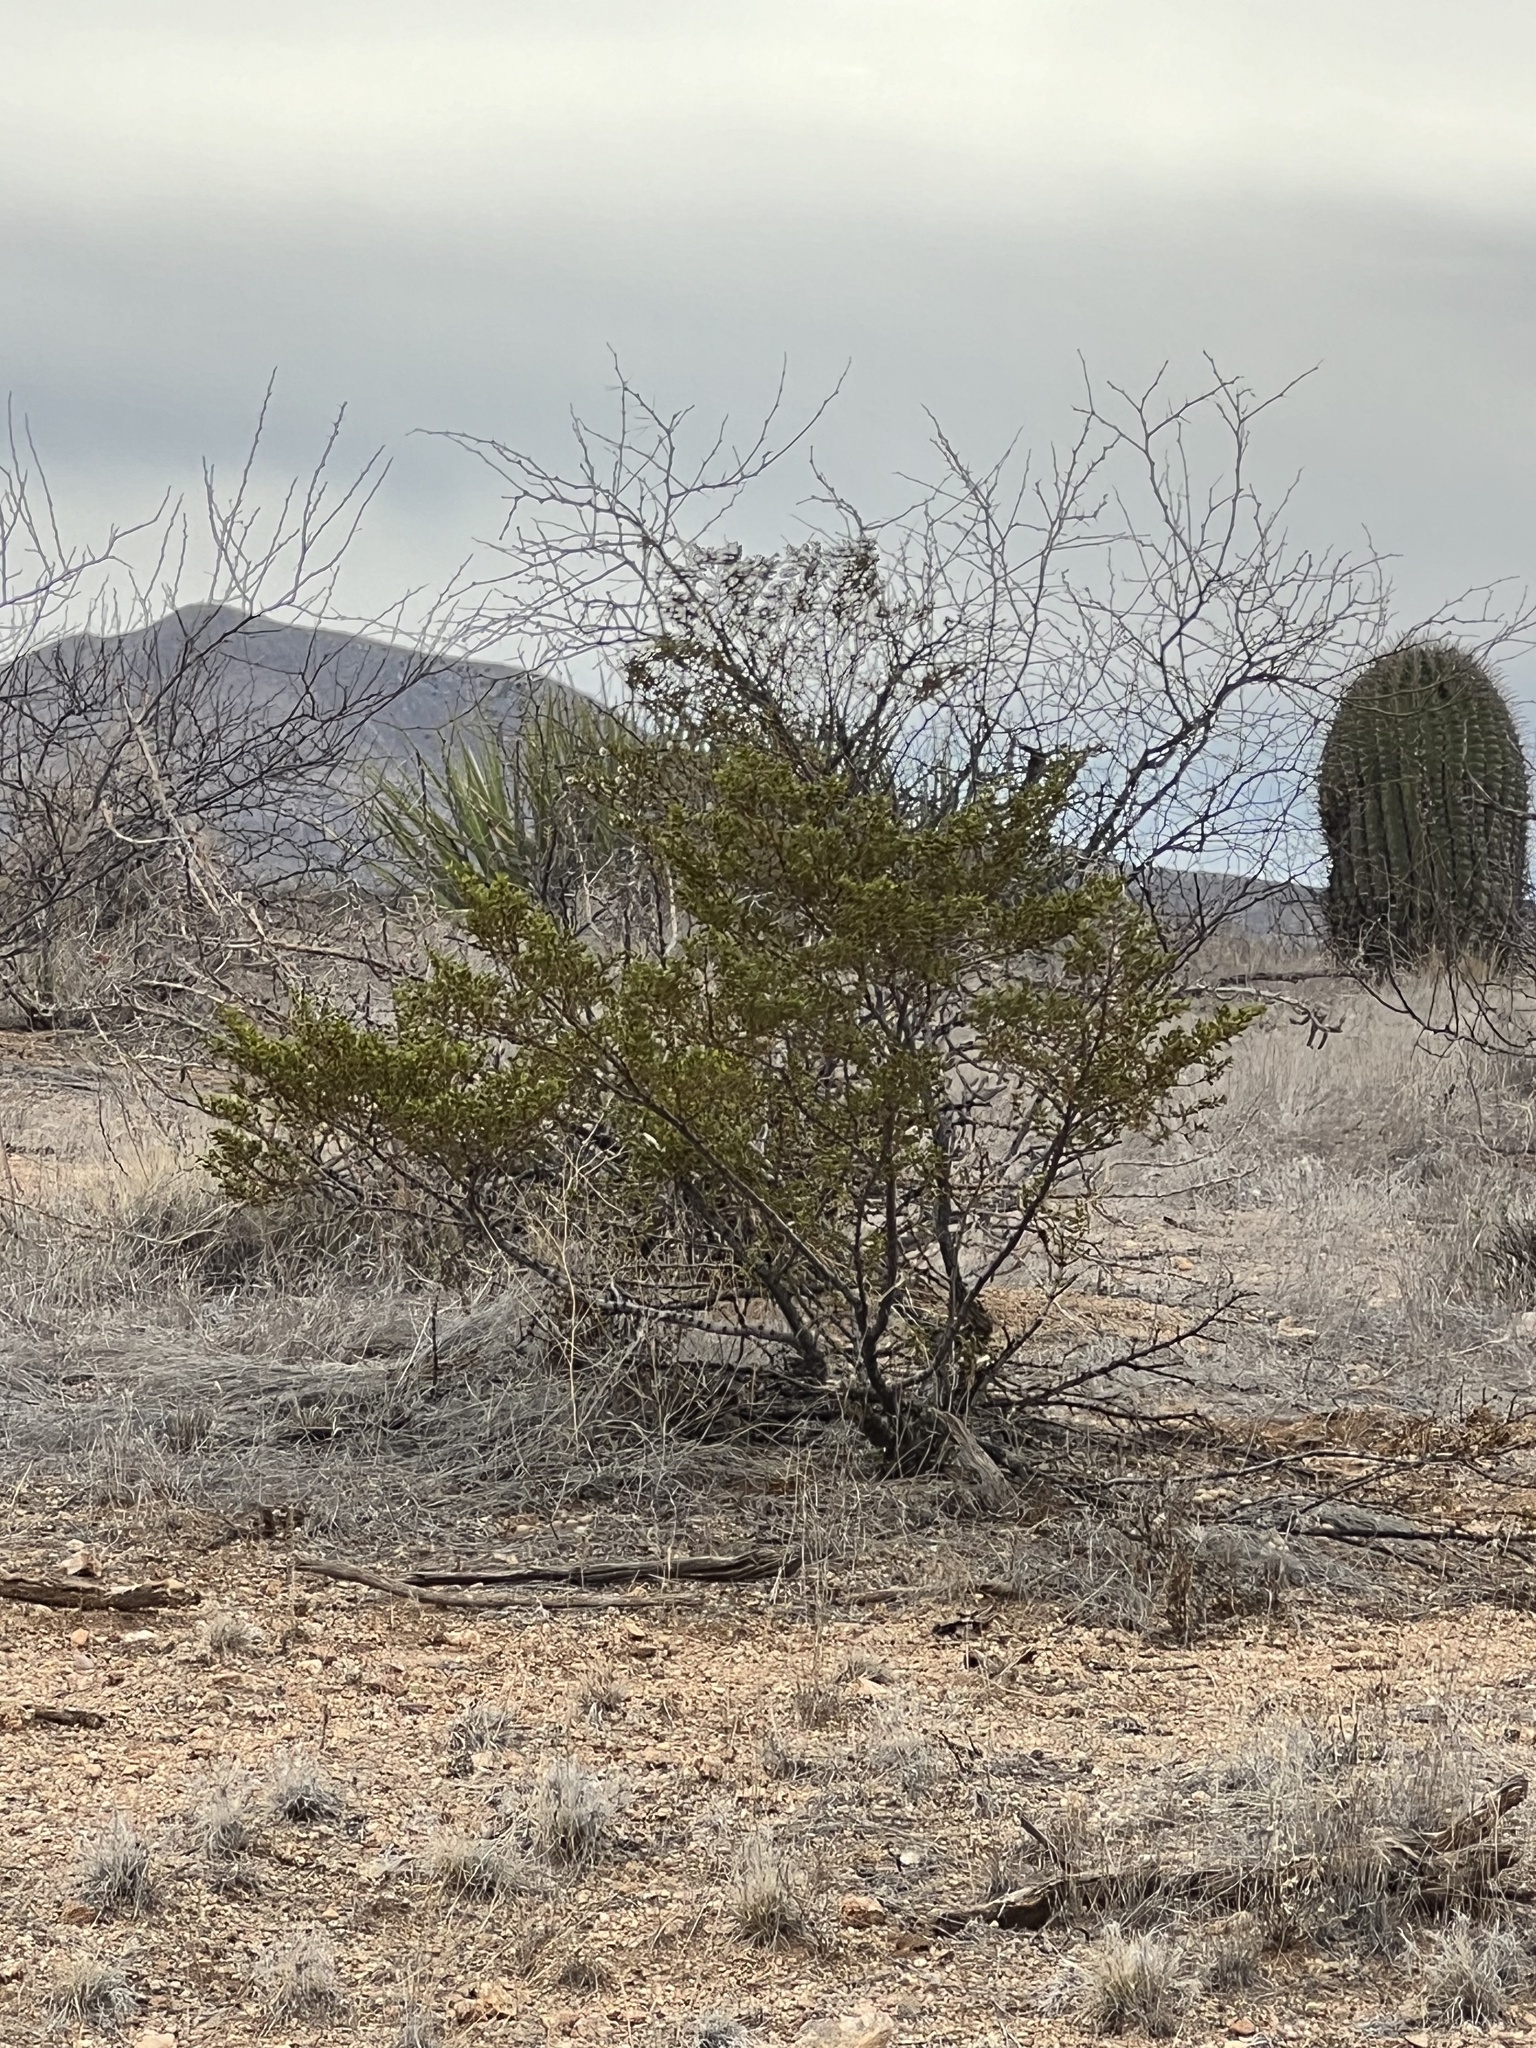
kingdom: Plantae
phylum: Tracheophyta
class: Magnoliopsida
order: Zygophyllales
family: Zygophyllaceae
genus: Larrea
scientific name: Larrea tridentata
